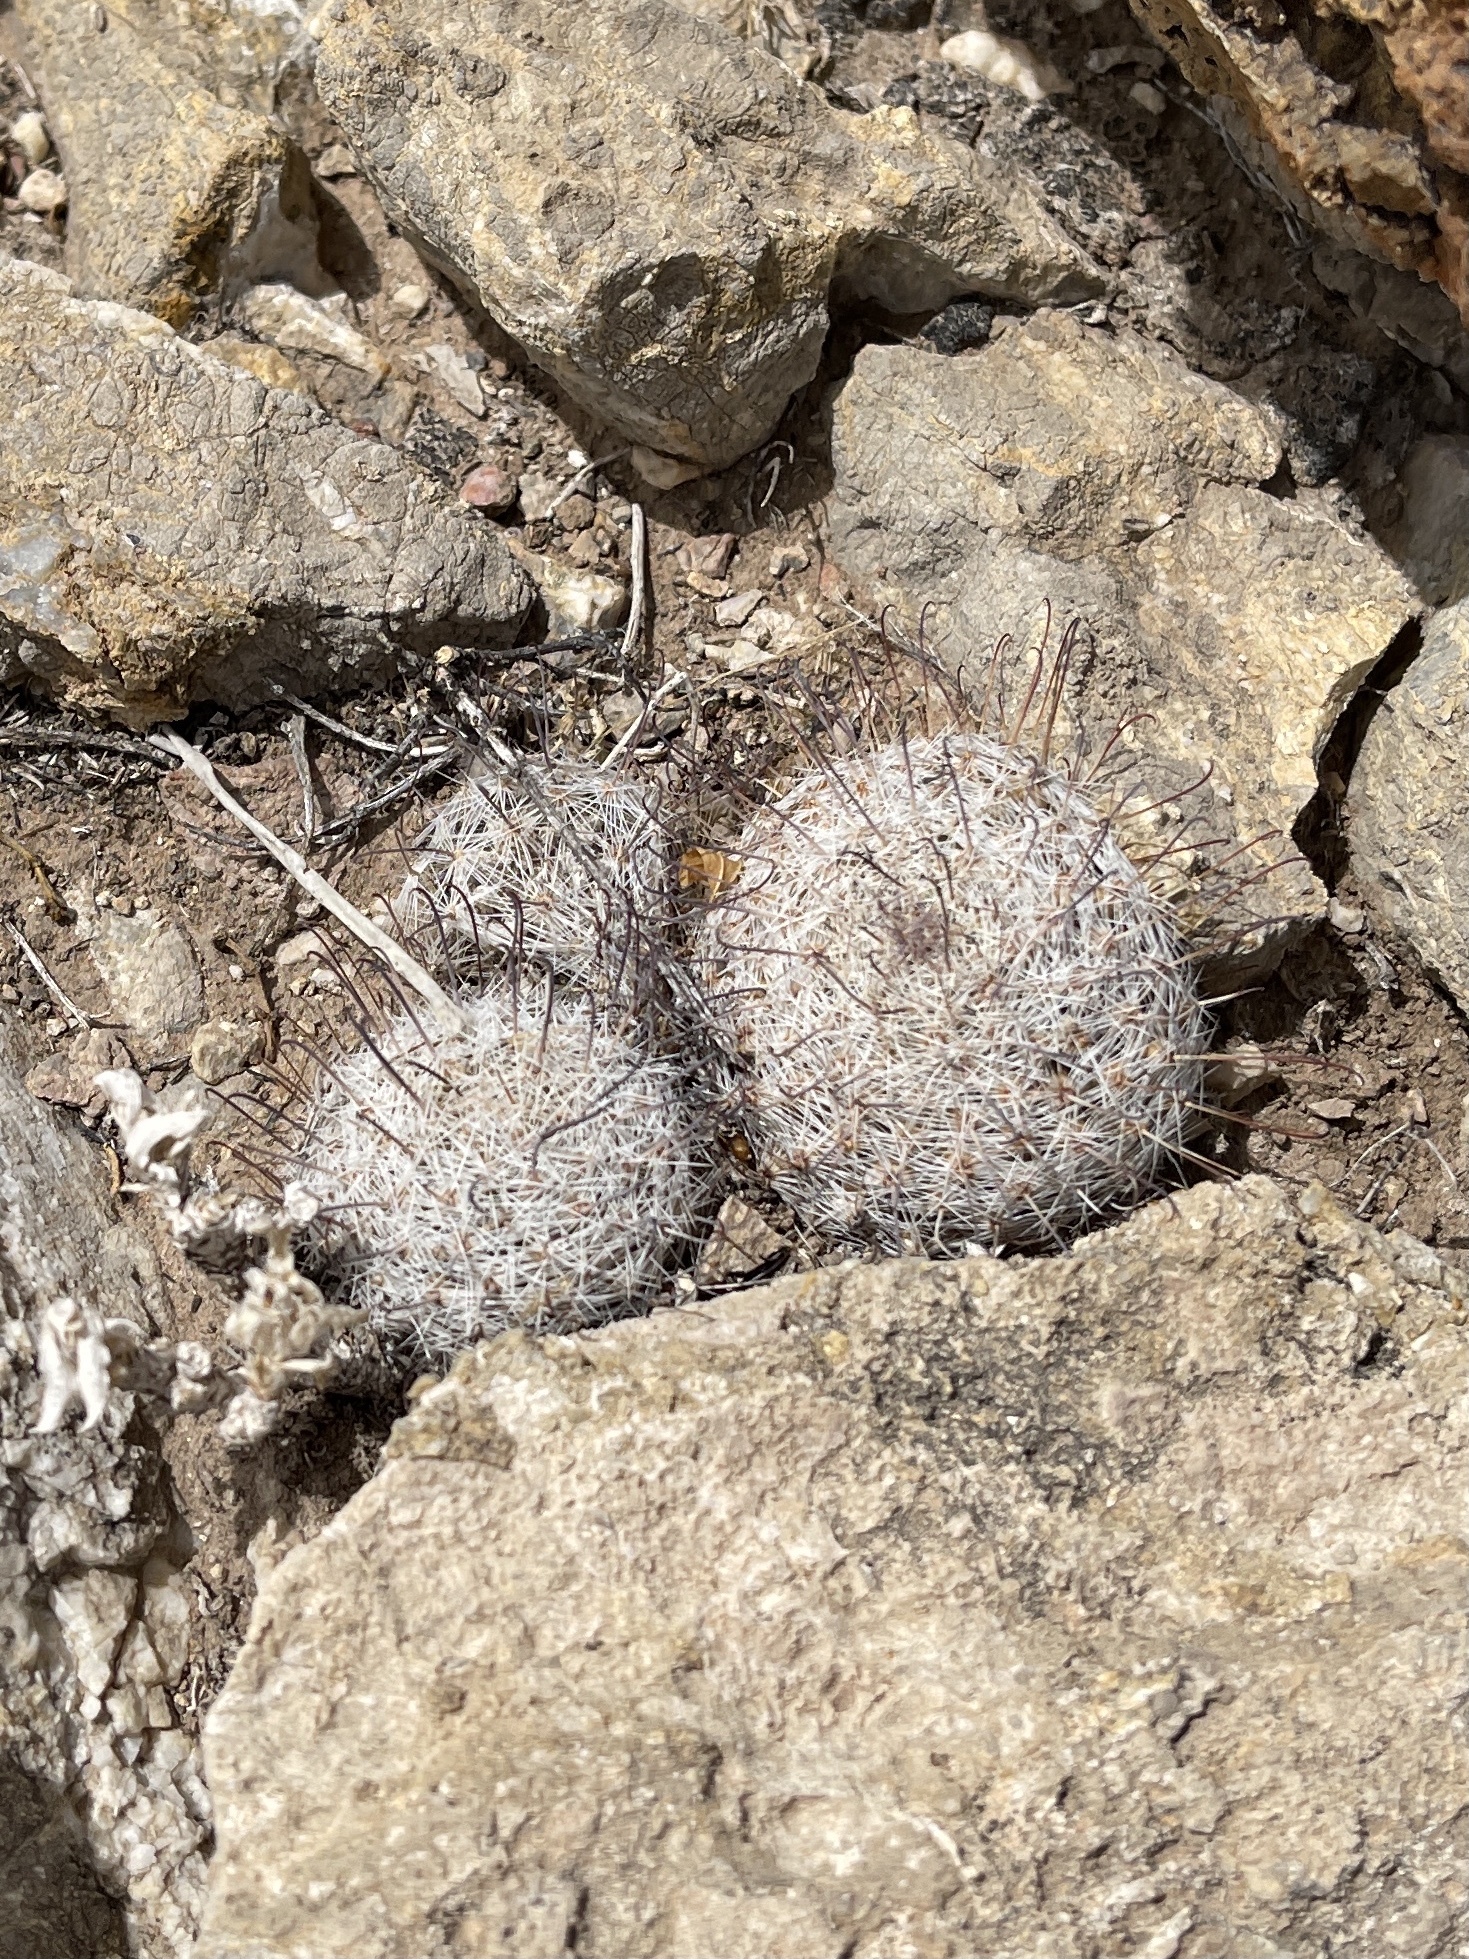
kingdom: Plantae
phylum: Tracheophyta
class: Magnoliopsida
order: Caryophyllales
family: Cactaceae
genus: Cochemiea
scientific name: Cochemiea grahamii
